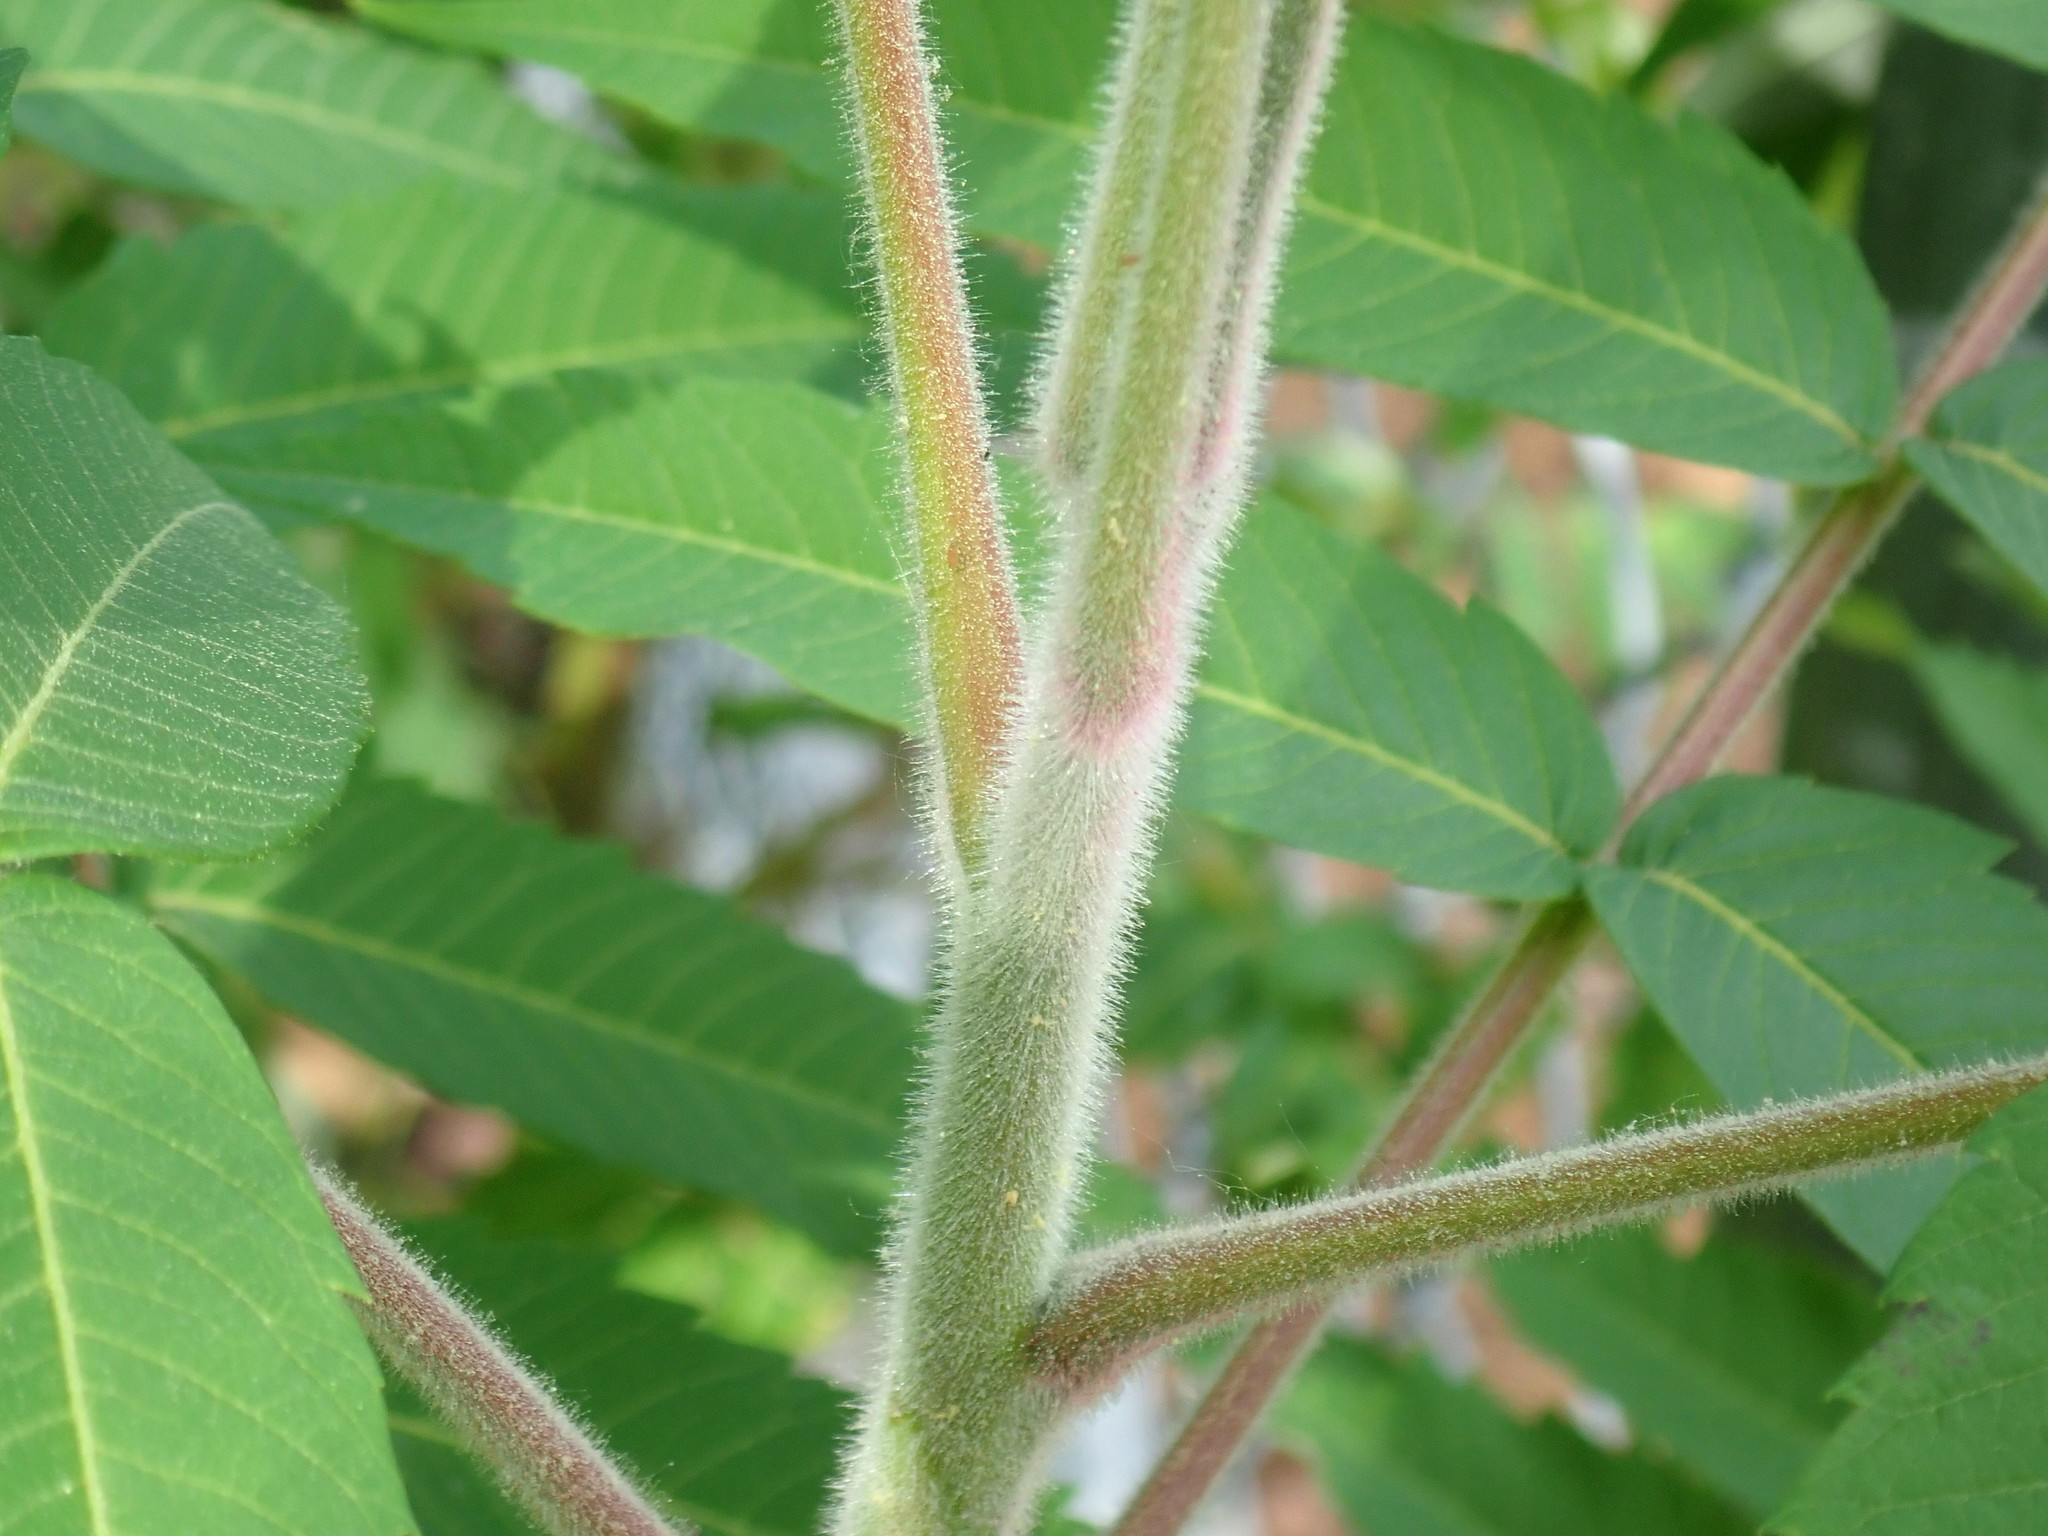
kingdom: Plantae
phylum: Tracheophyta
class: Magnoliopsida
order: Sapindales
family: Anacardiaceae
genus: Rhus
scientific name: Rhus typhina
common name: Staghorn sumac
